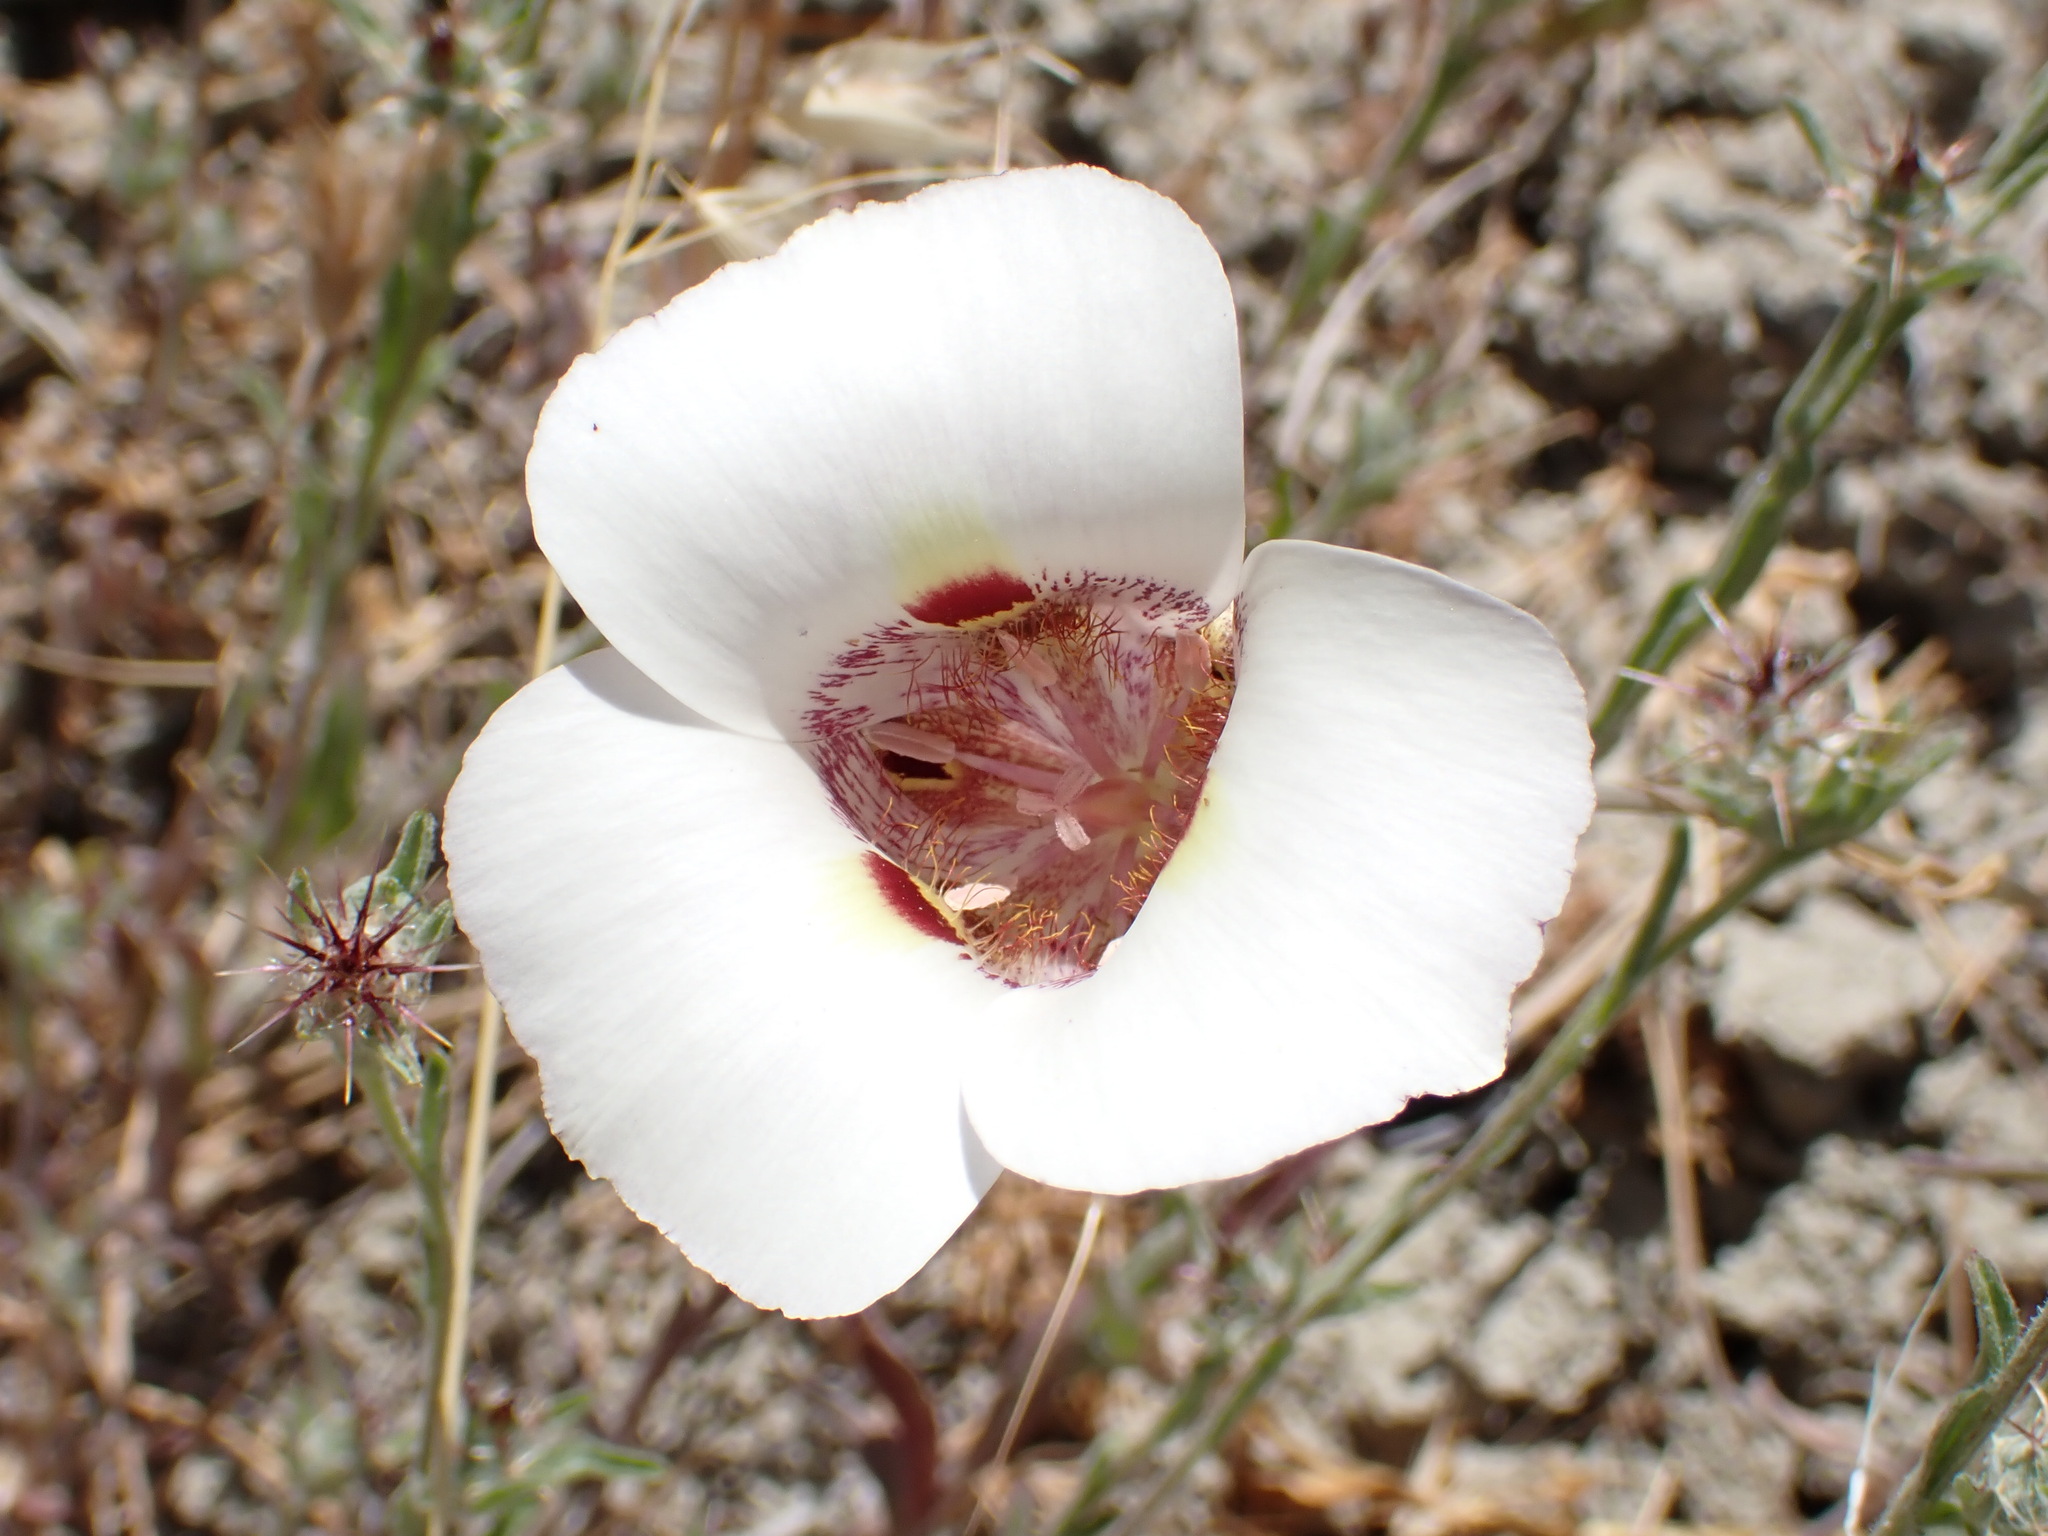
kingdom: Plantae
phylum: Tracheophyta
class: Liliopsida
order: Liliales
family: Liliaceae
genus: Calochortus
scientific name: Calochortus argillosus
